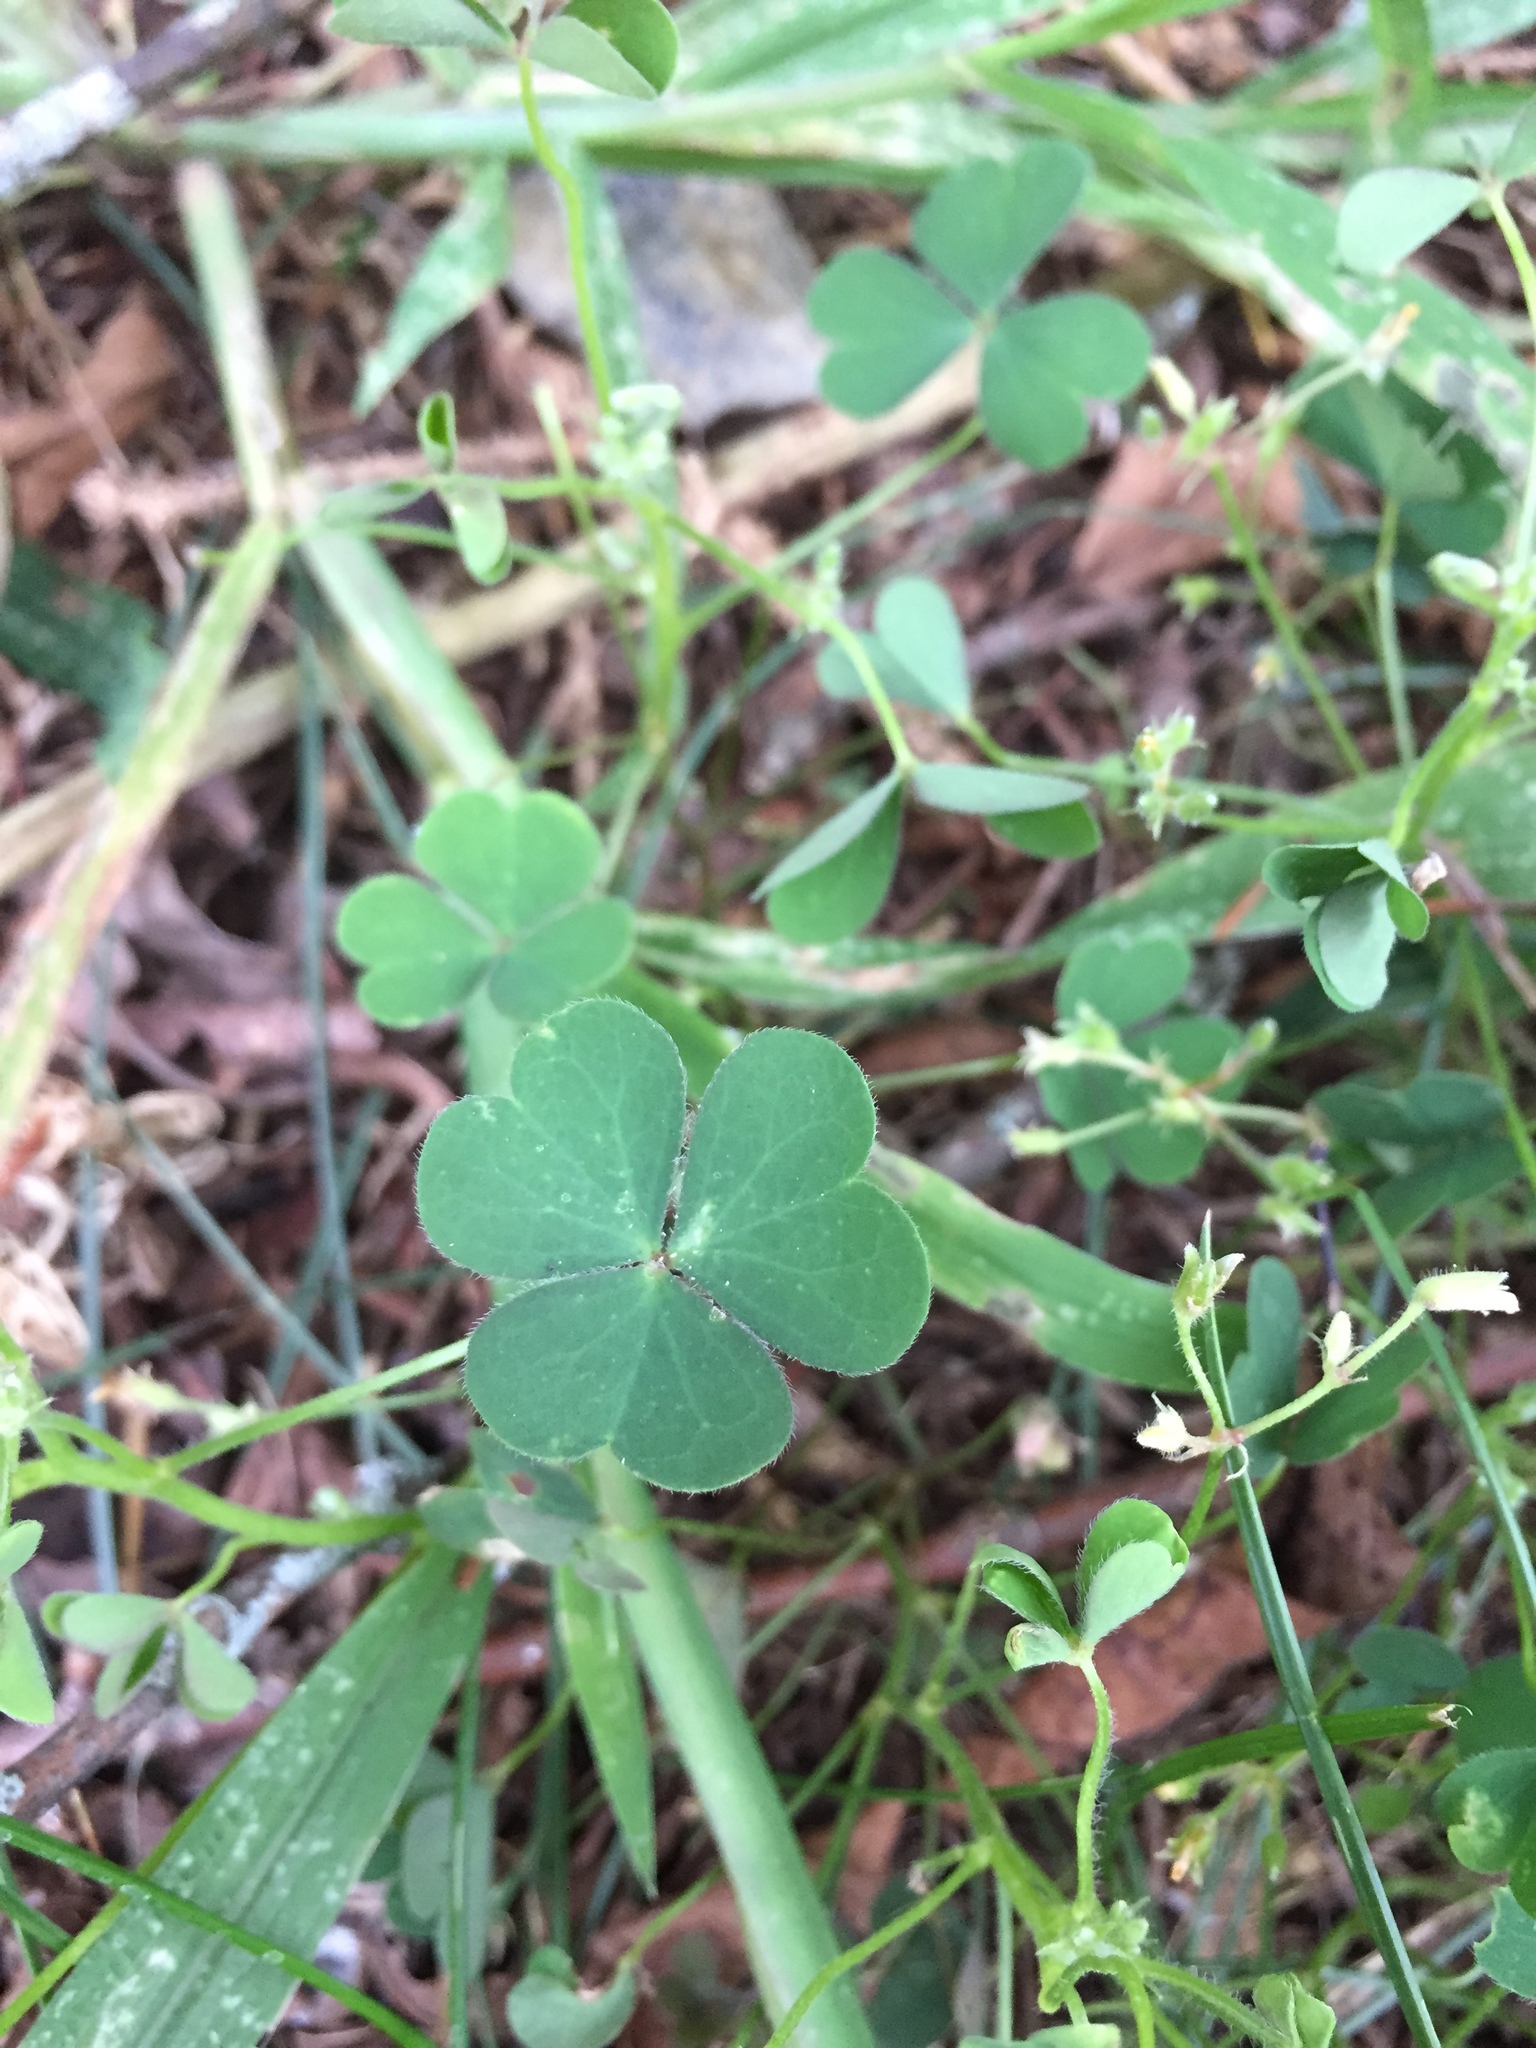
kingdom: Plantae
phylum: Tracheophyta
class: Magnoliopsida
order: Oxalidales
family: Oxalidaceae
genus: Oxalis
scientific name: Oxalis stricta
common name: Upright yellow-sorrel
